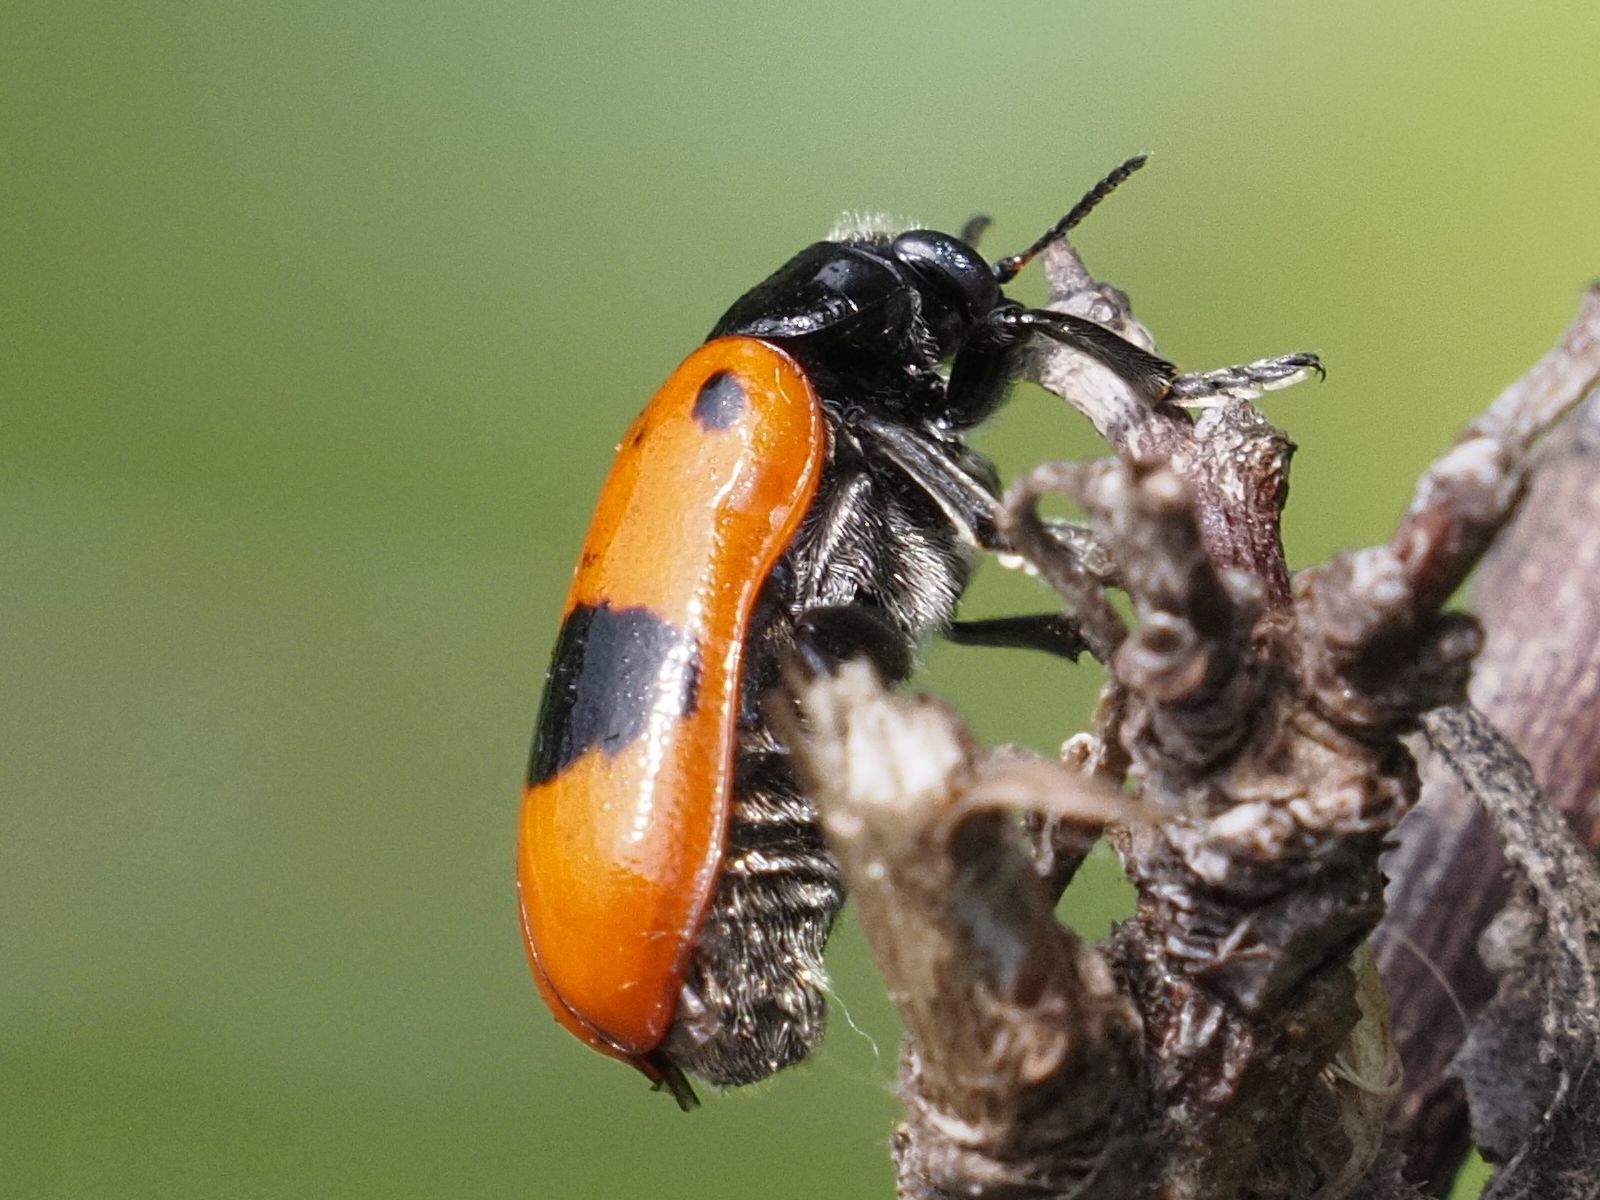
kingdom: Animalia
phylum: Arthropoda
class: Insecta
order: Coleoptera
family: Chrysomelidae
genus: Clytra
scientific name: Clytra laeviuscula
